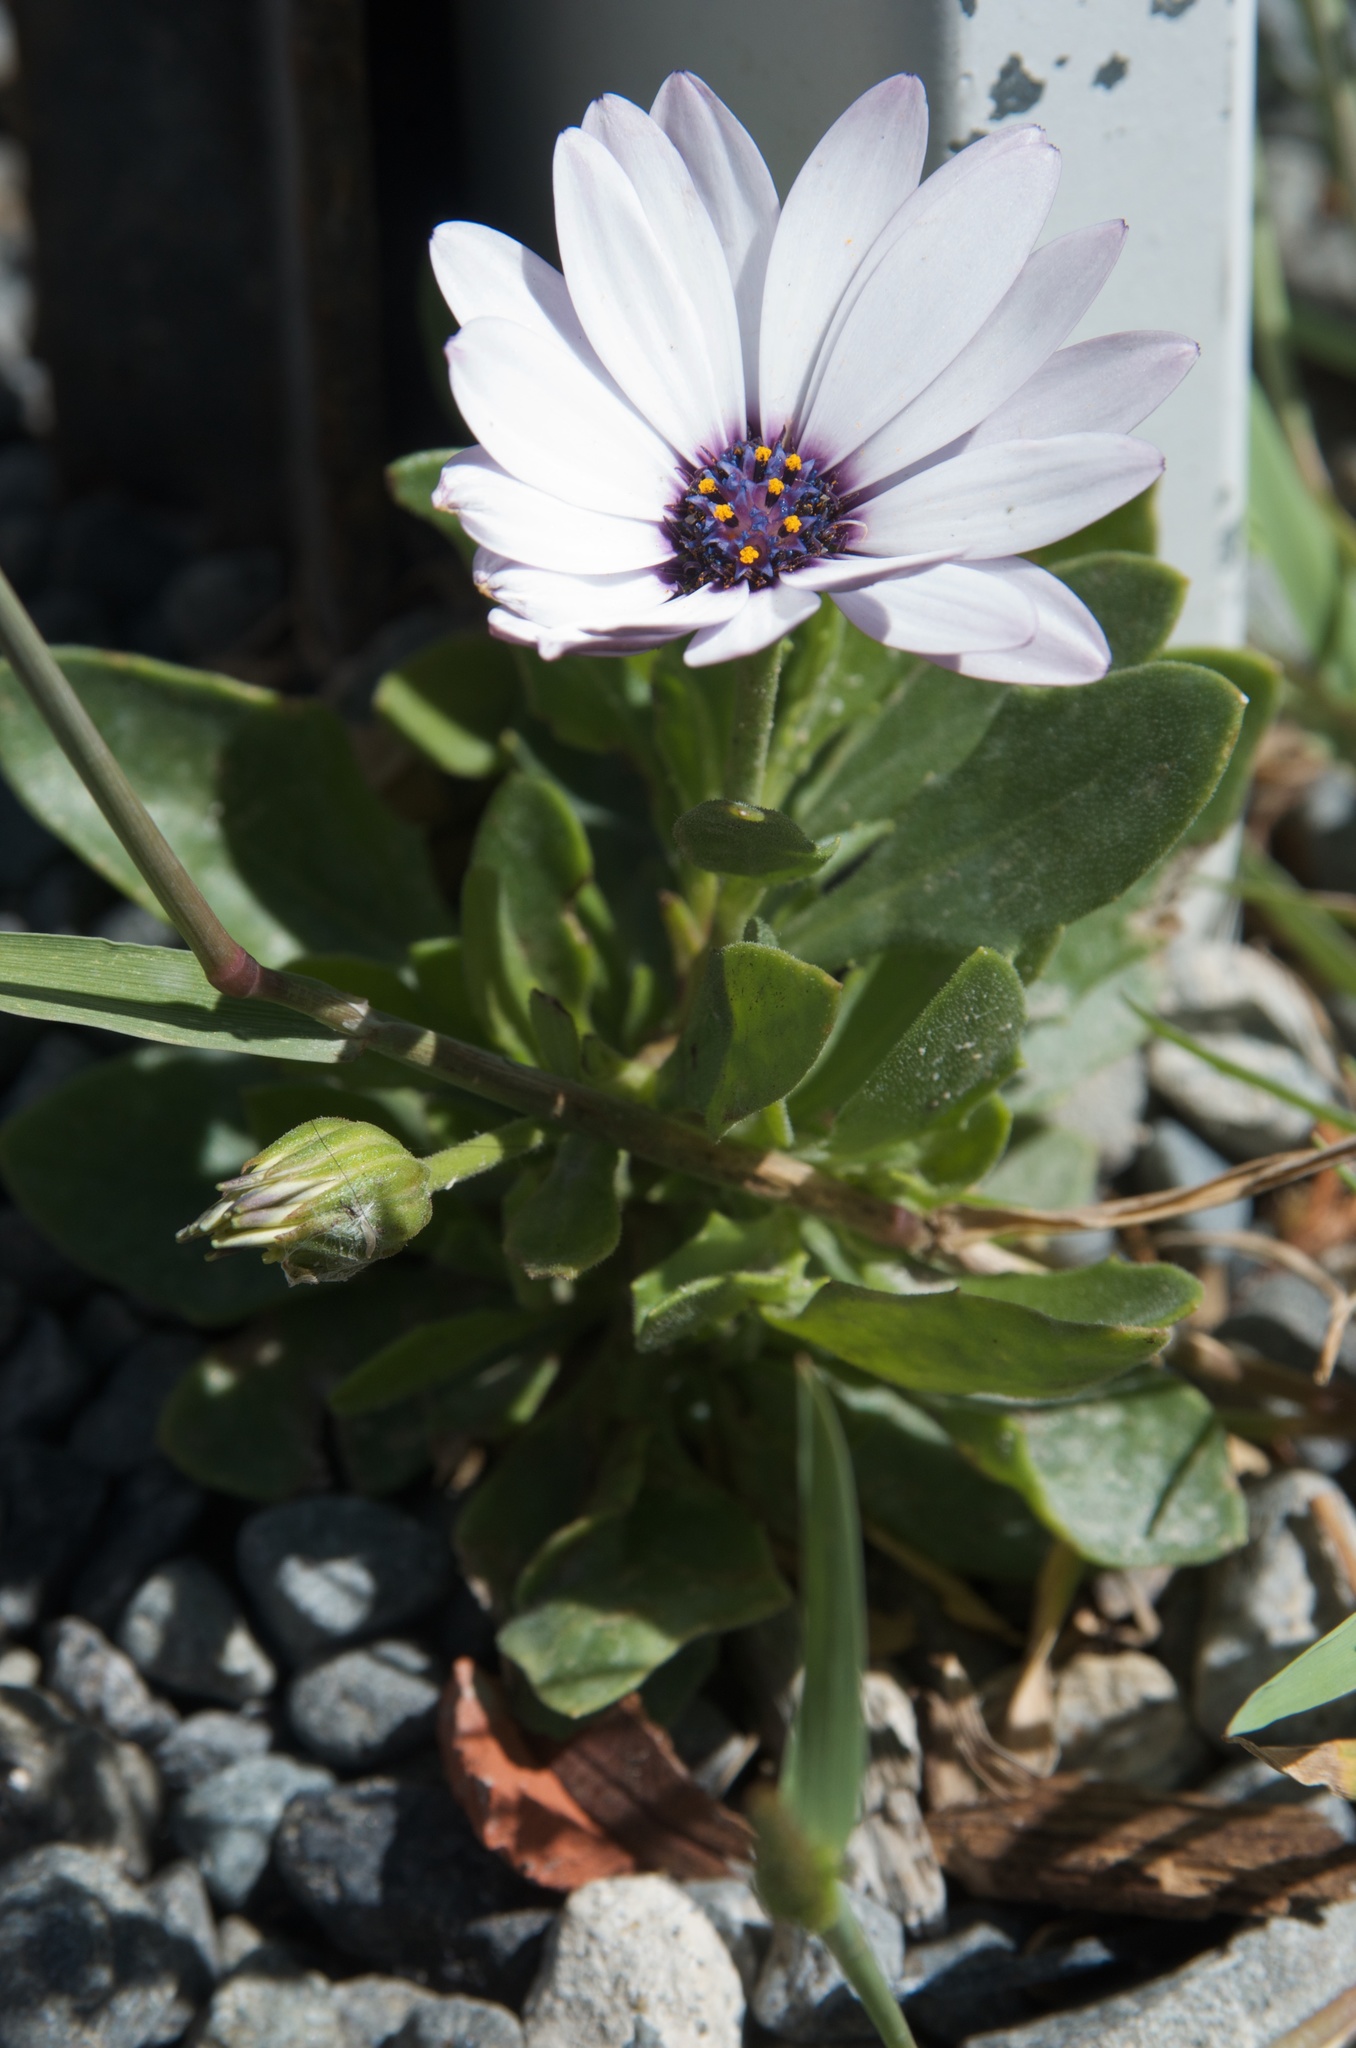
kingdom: Plantae
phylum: Tracheophyta
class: Magnoliopsida
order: Asterales
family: Asteraceae
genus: Dimorphotheca
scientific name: Dimorphotheca fruticosa
